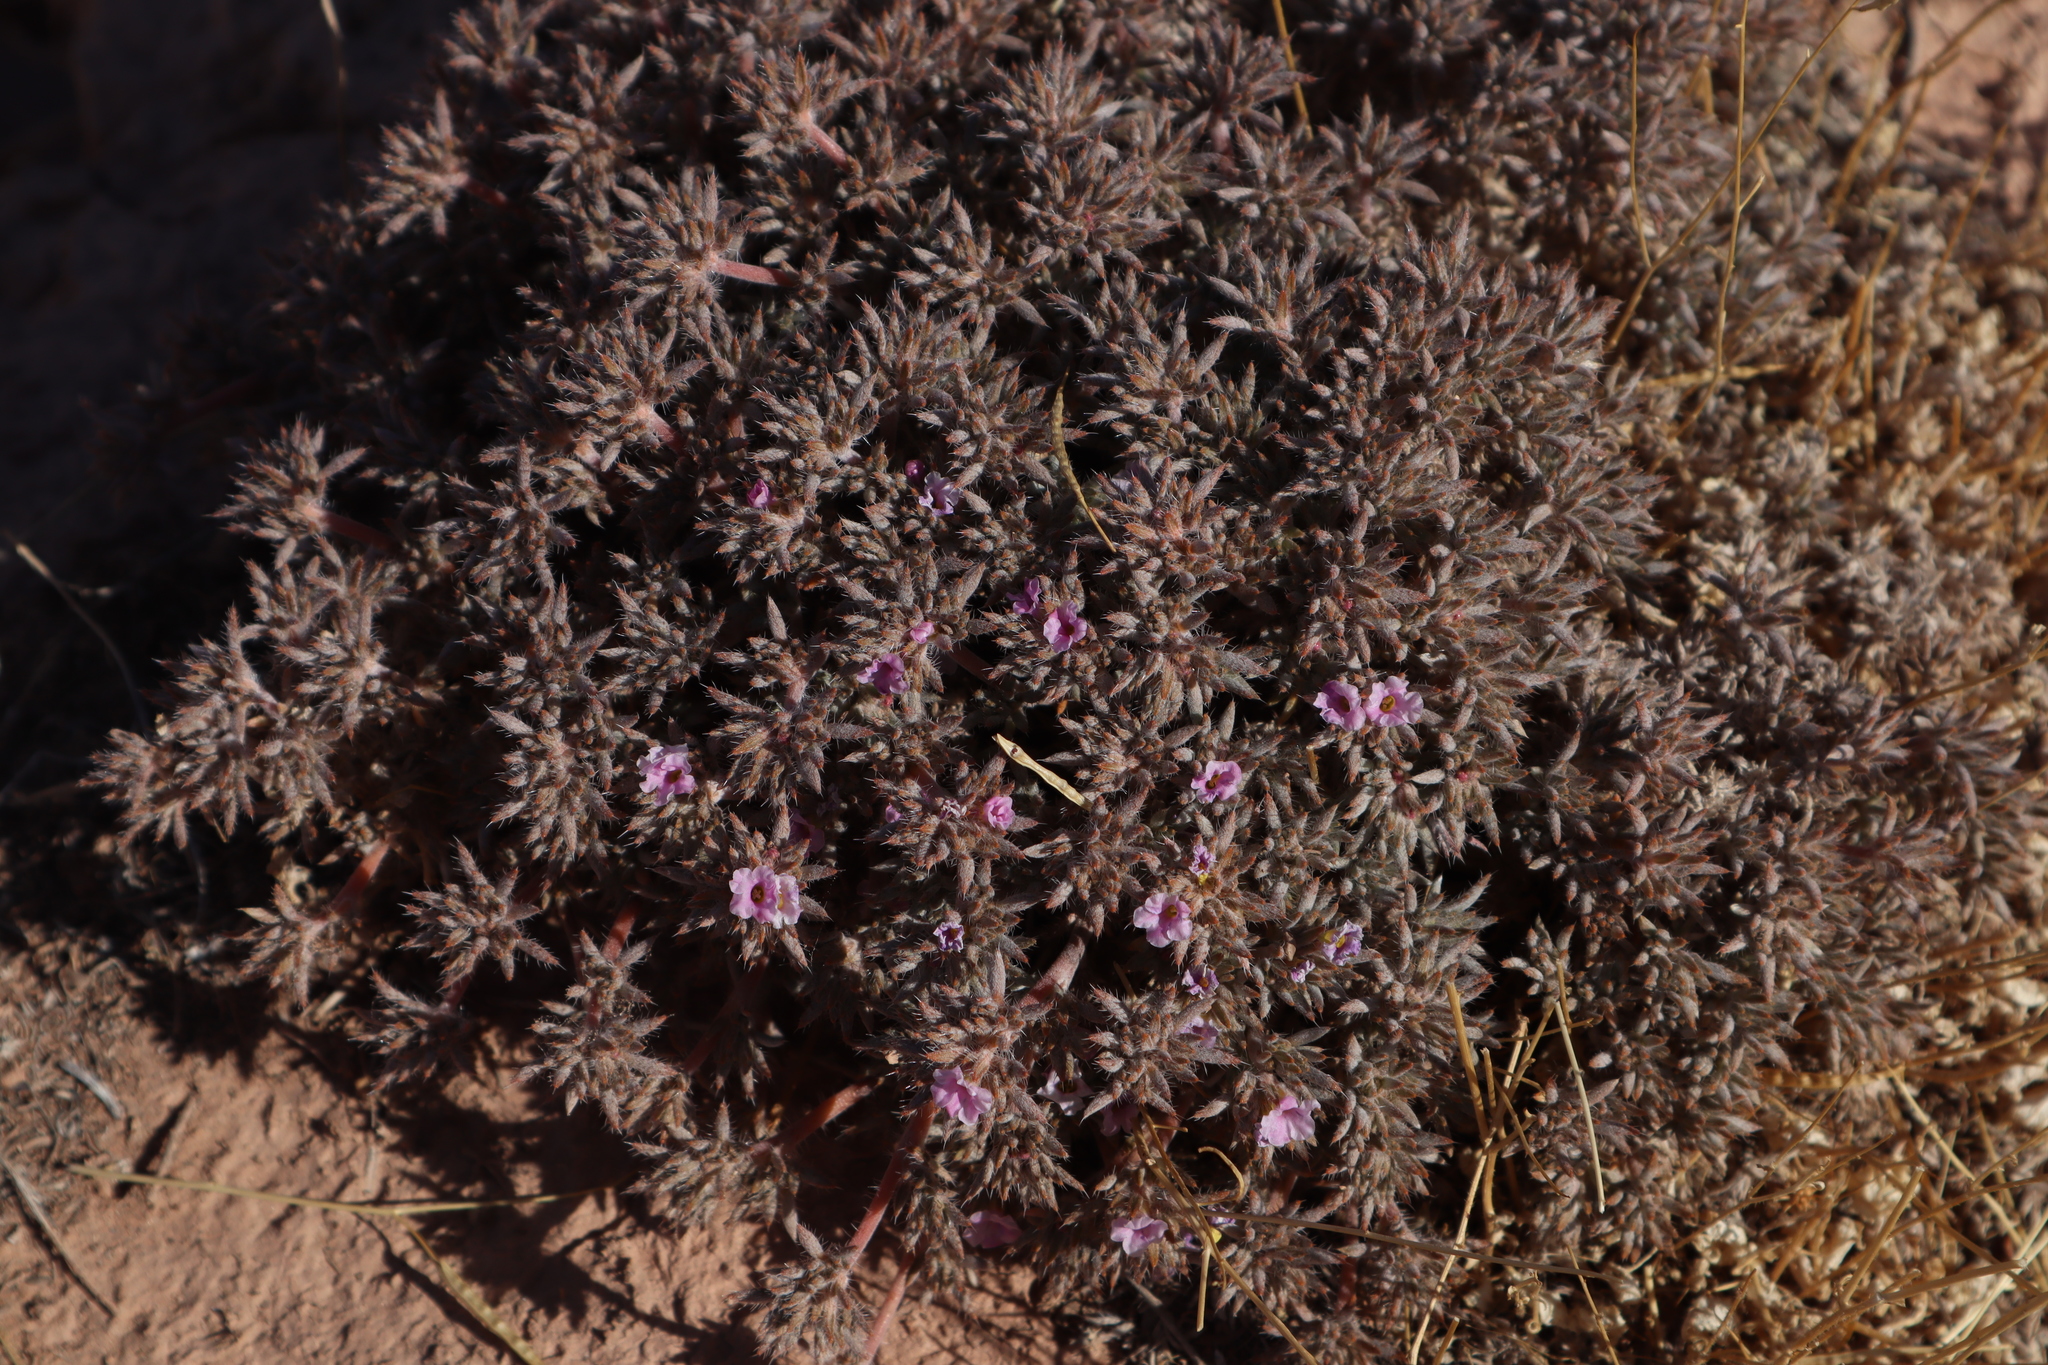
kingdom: Plantae
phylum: Tracheophyta
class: Magnoliopsida
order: Boraginales
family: Ehretiaceae
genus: Tiquilia
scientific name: Tiquilia latior
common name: Matted tiquilia
